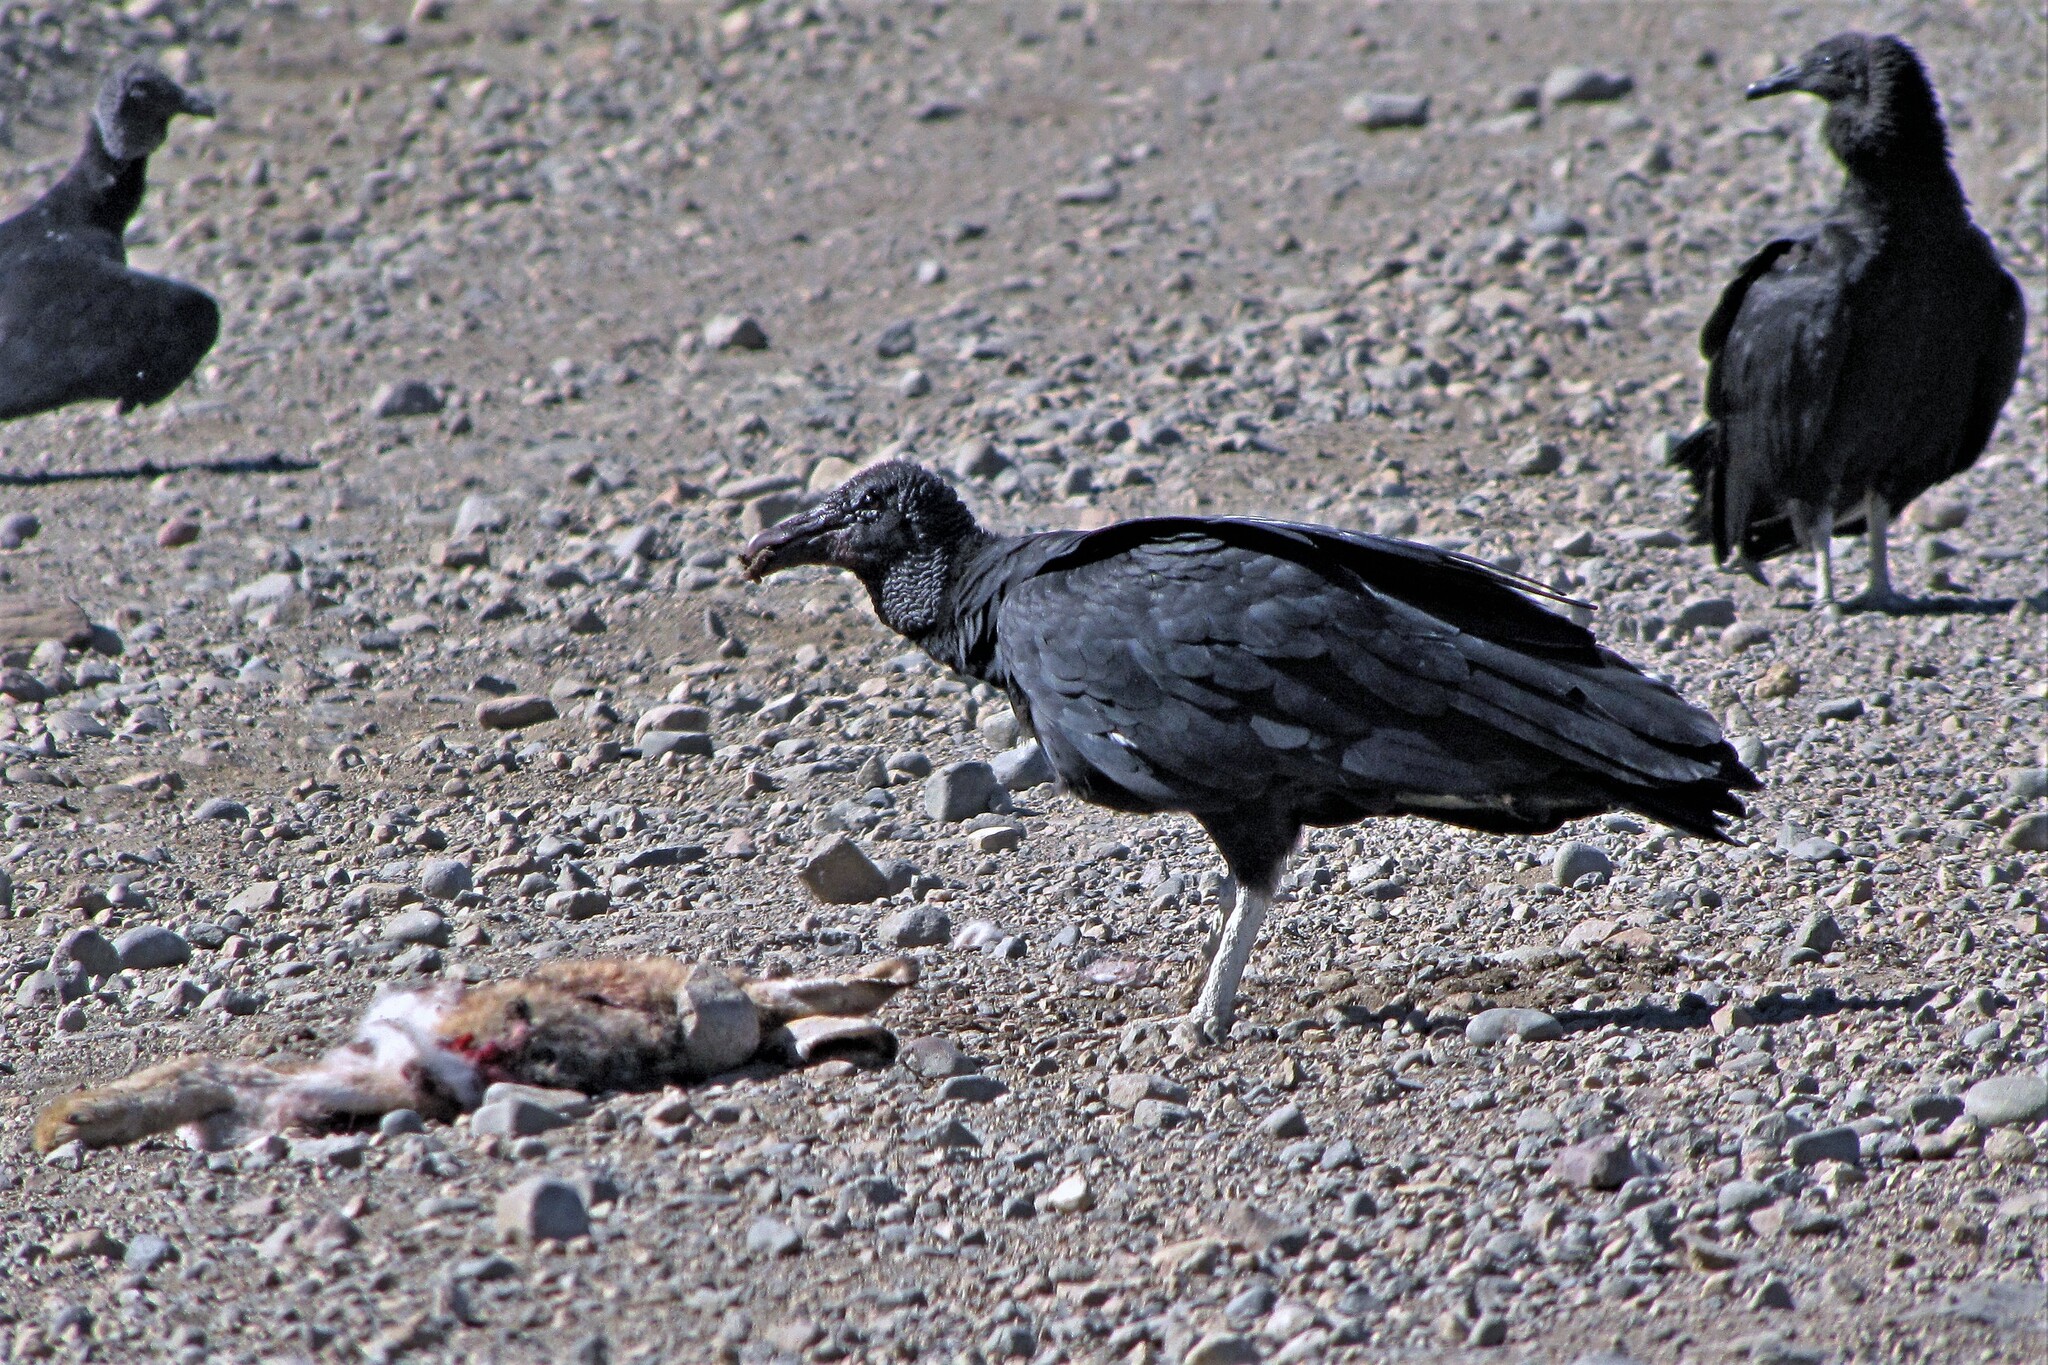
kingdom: Animalia
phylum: Chordata
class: Aves
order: Accipitriformes
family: Cathartidae
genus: Coragyps
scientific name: Coragyps atratus
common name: Black vulture
